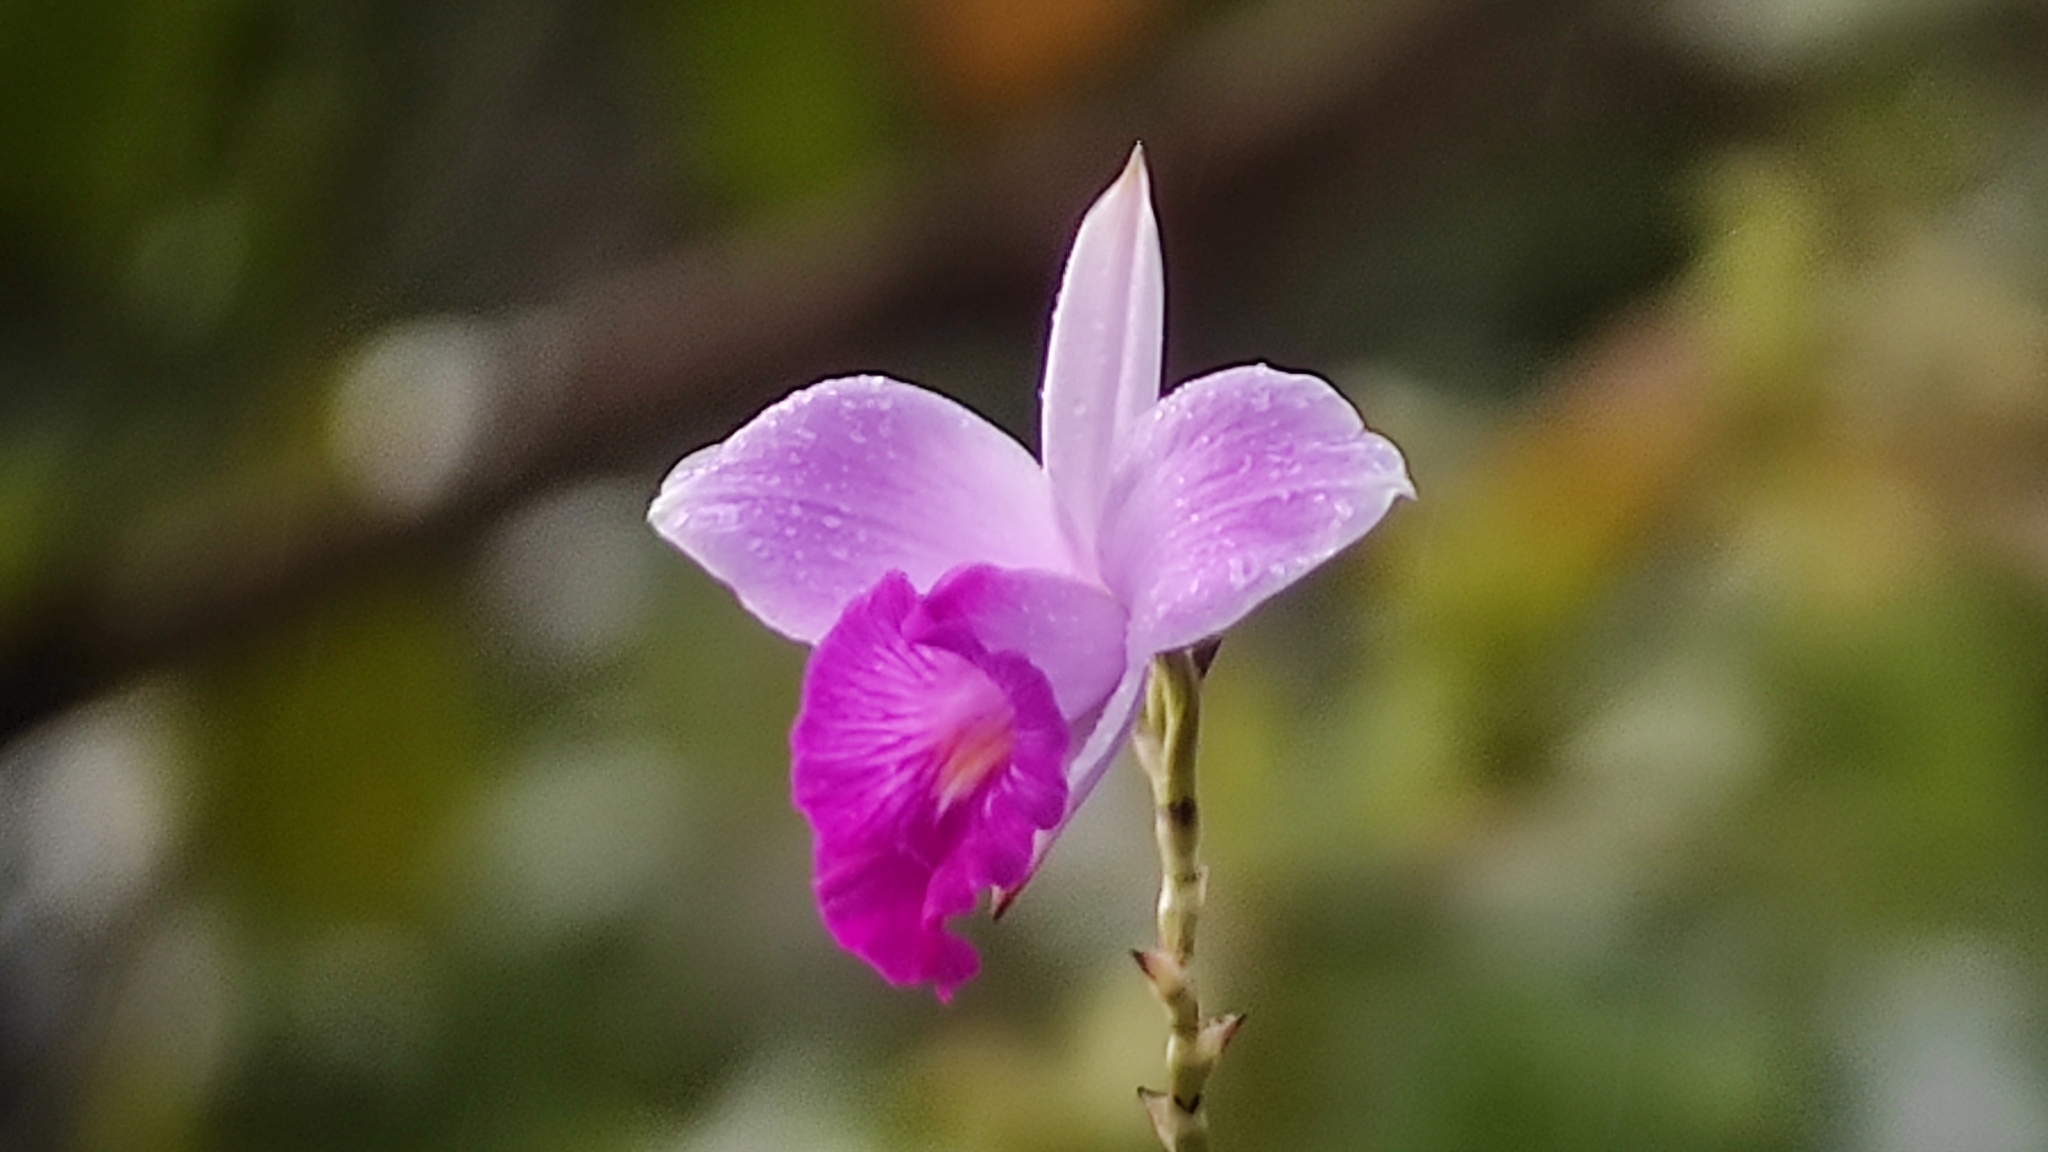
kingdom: Plantae
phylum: Tracheophyta
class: Liliopsida
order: Asparagales
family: Orchidaceae
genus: Arundina
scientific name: Arundina graminifolia
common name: Bamboo orchid
